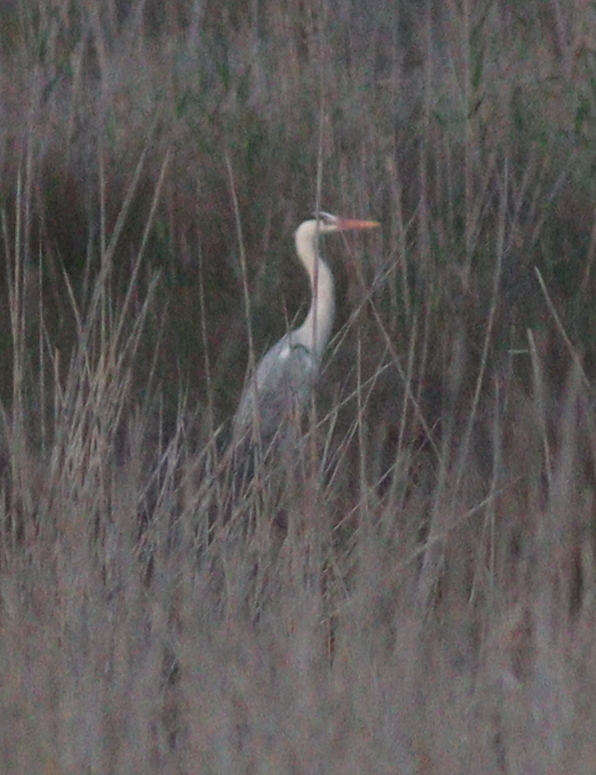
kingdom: Animalia
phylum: Chordata
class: Aves
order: Pelecaniformes
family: Ardeidae
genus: Ardea
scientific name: Ardea cinerea
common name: Grey heron
